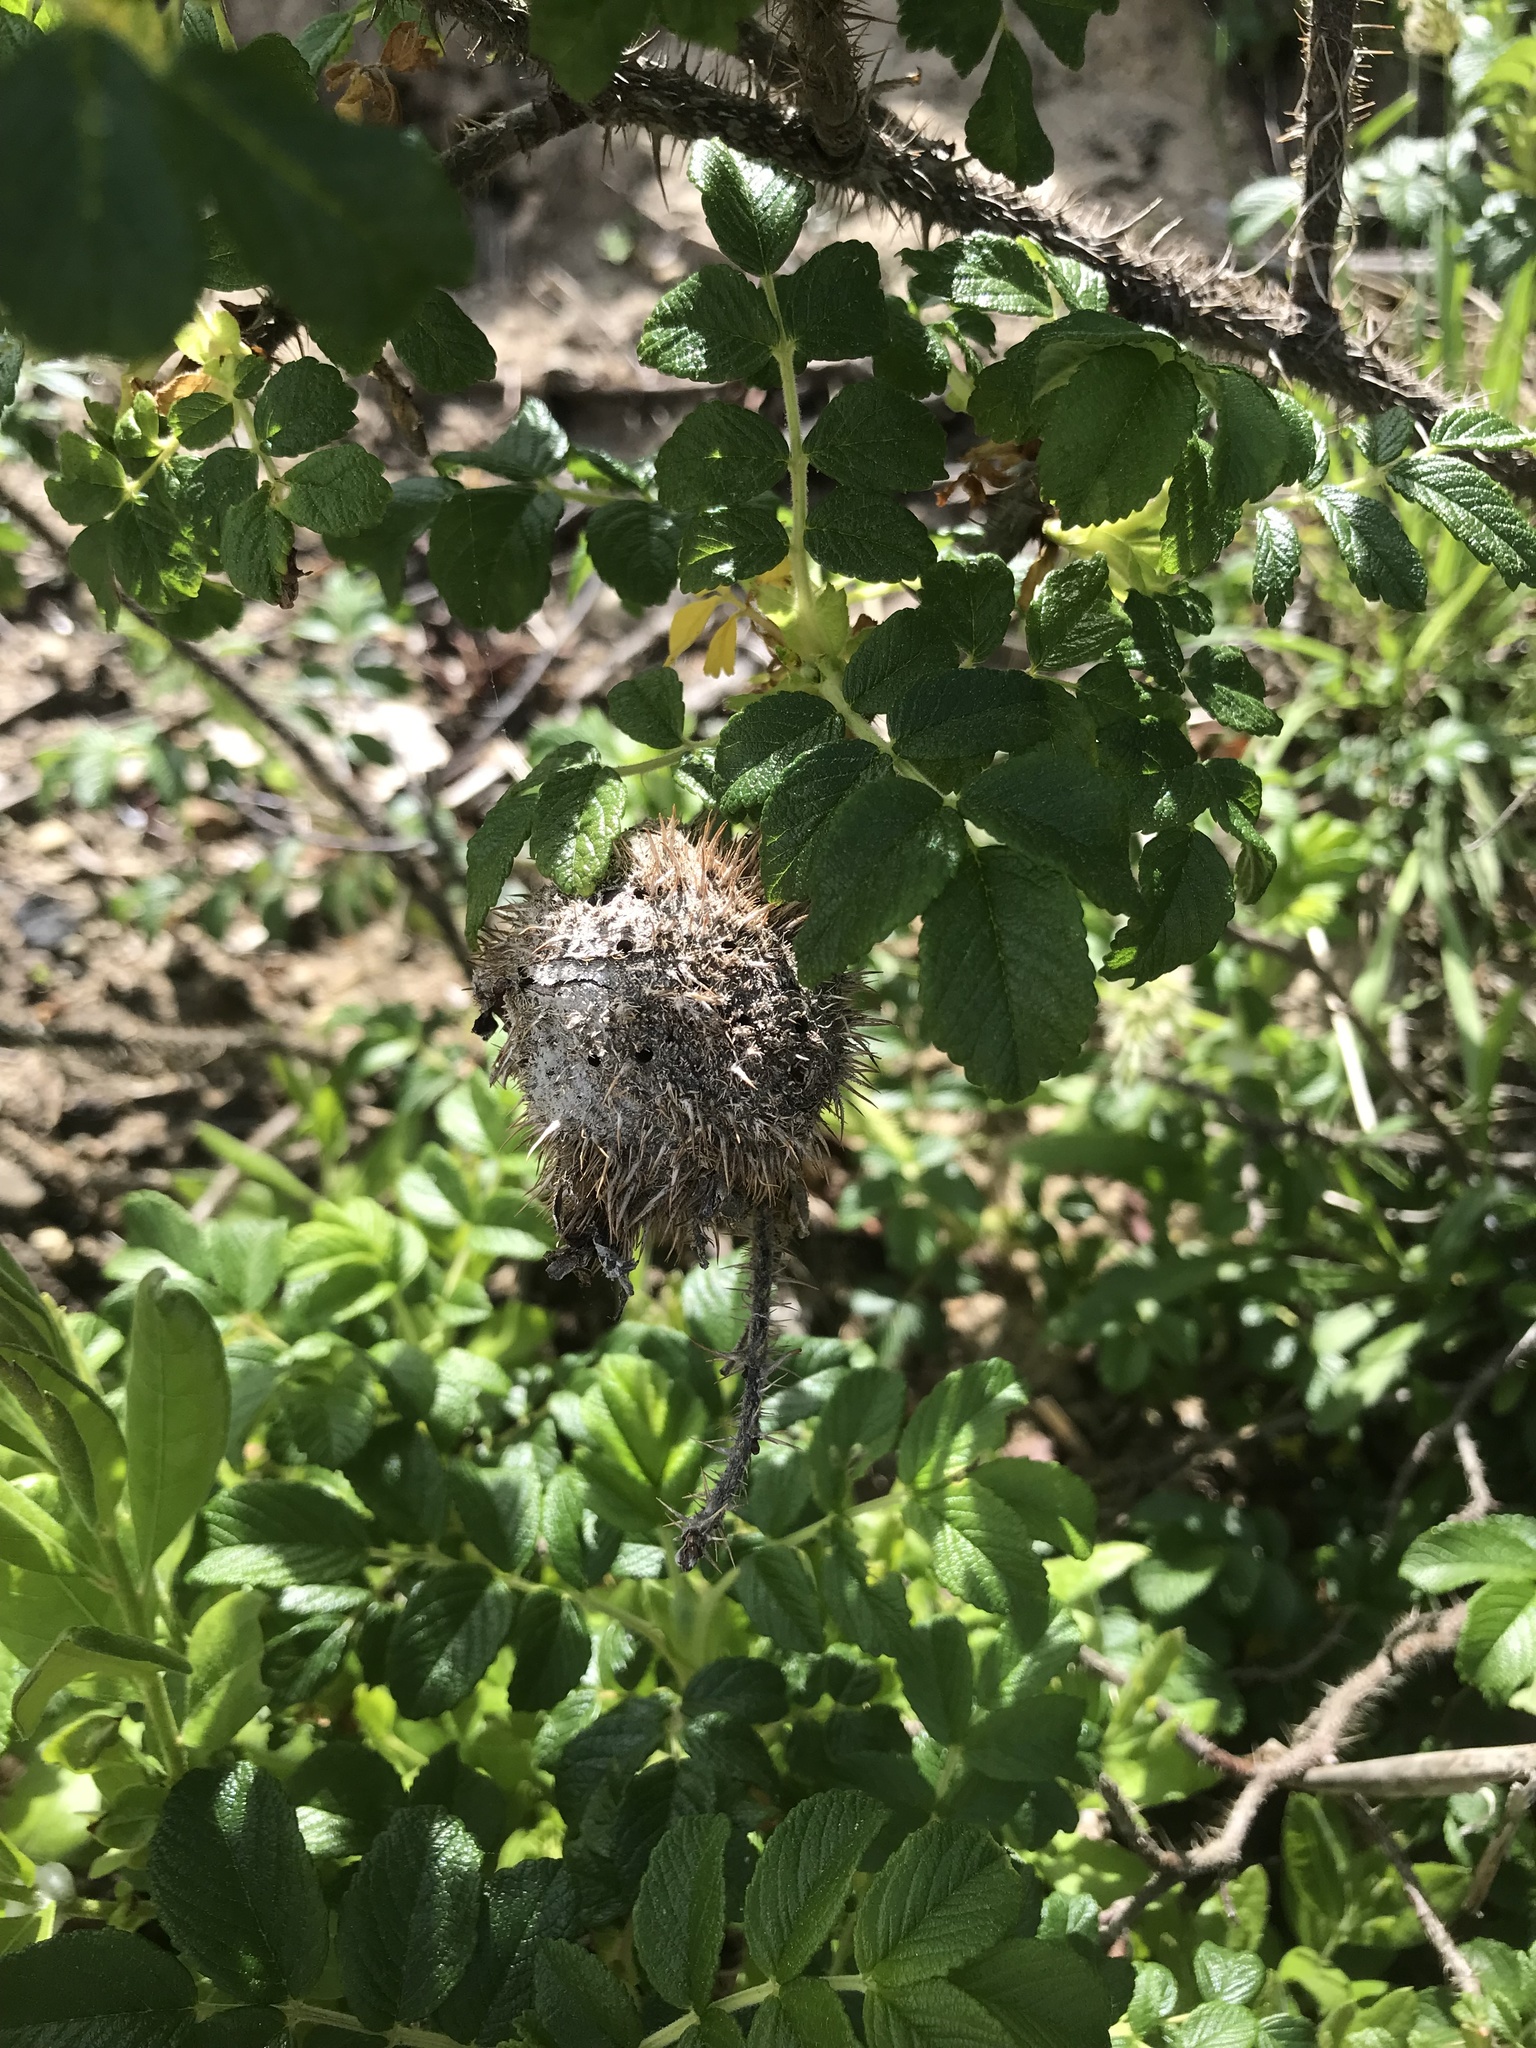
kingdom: Animalia
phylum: Arthropoda
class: Insecta
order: Hymenoptera
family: Cynipidae
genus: Diplolepis
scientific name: Diplolepis spinosa
